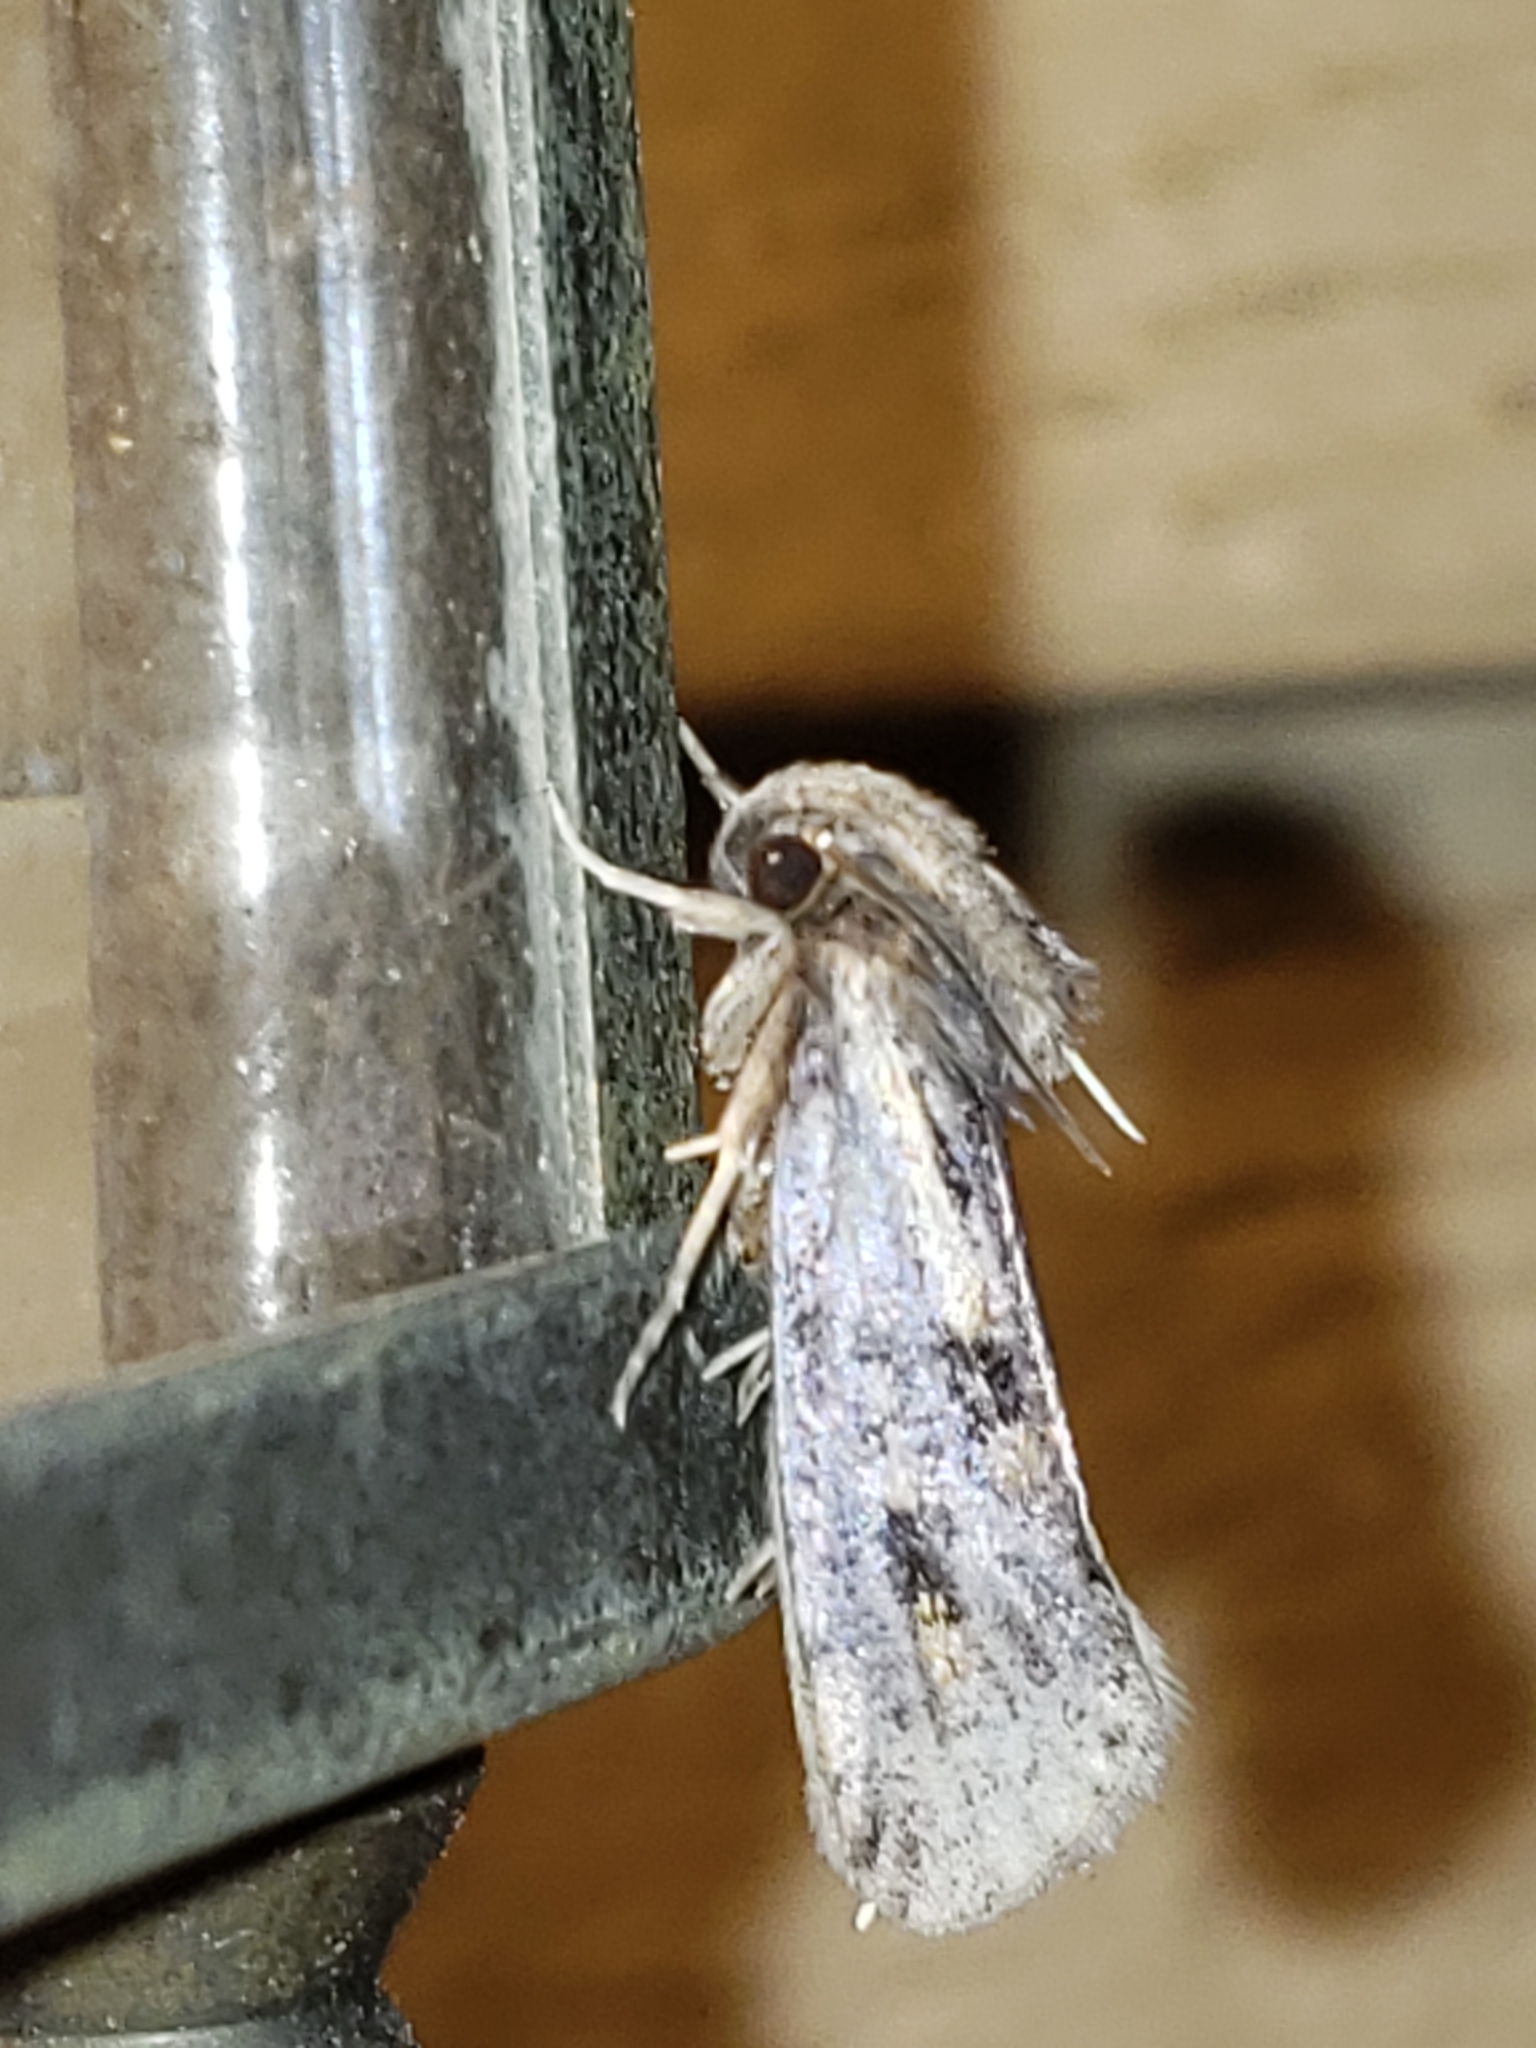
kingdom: Animalia
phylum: Arthropoda
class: Insecta
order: Lepidoptera
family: Tineidae
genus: Acrolophus
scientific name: Acrolophus popeanella
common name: Clemens' grass tubeworm moth
